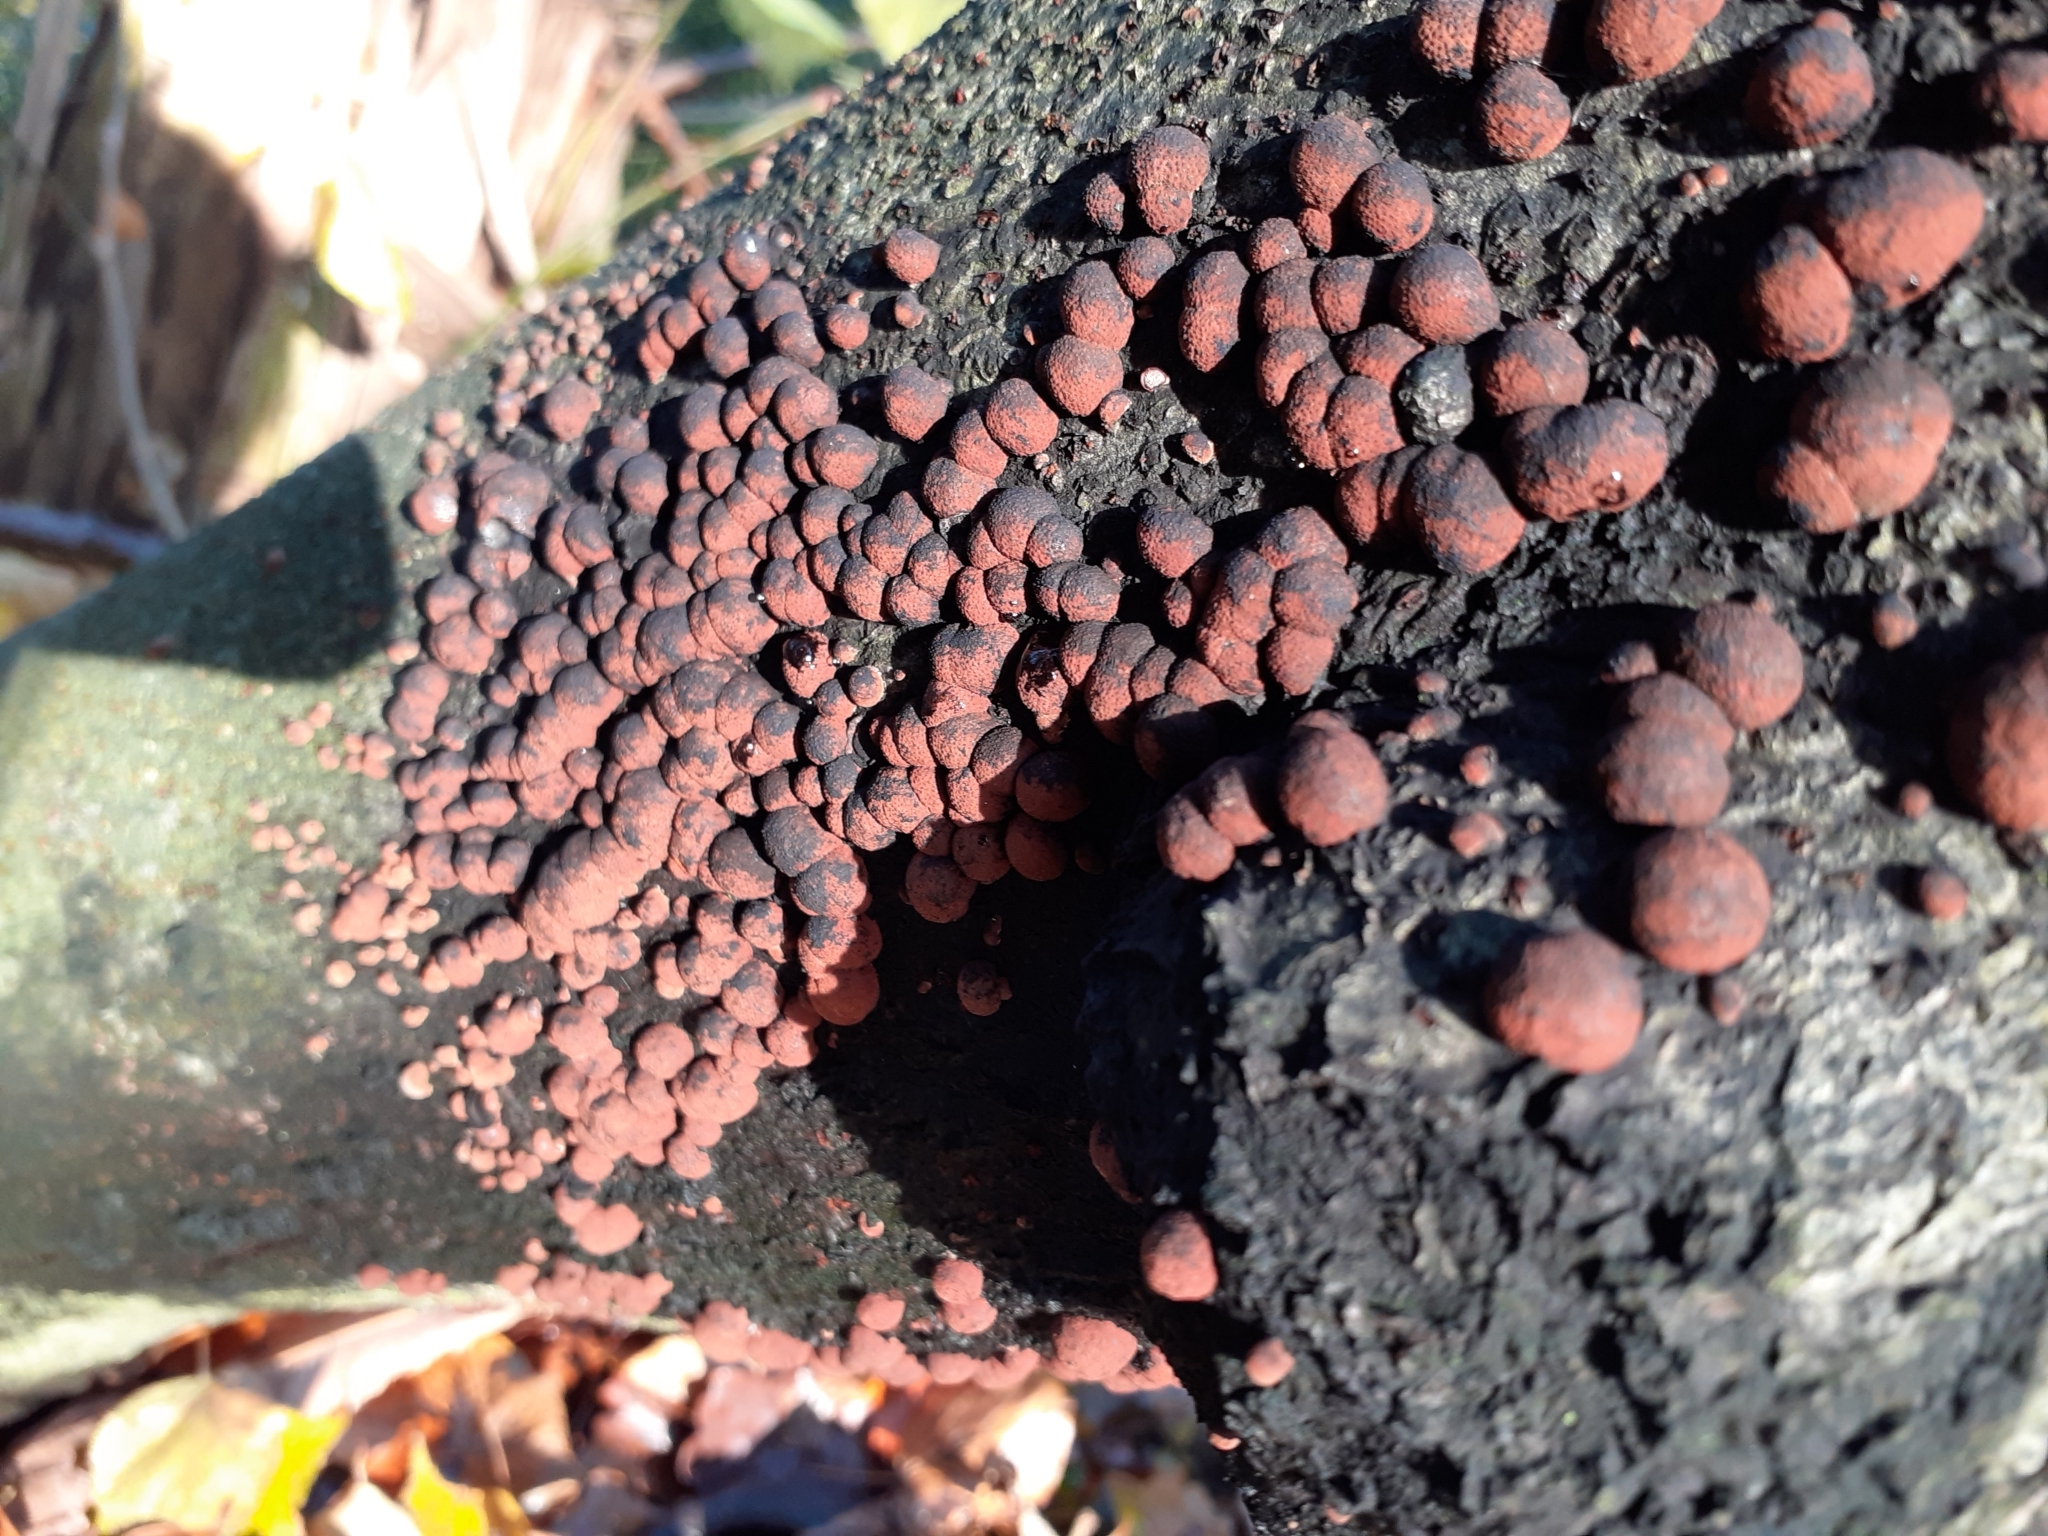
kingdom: Fungi
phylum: Ascomycota
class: Sordariomycetes
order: Xylariales
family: Hypoxylaceae
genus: Hypoxylon
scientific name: Hypoxylon
